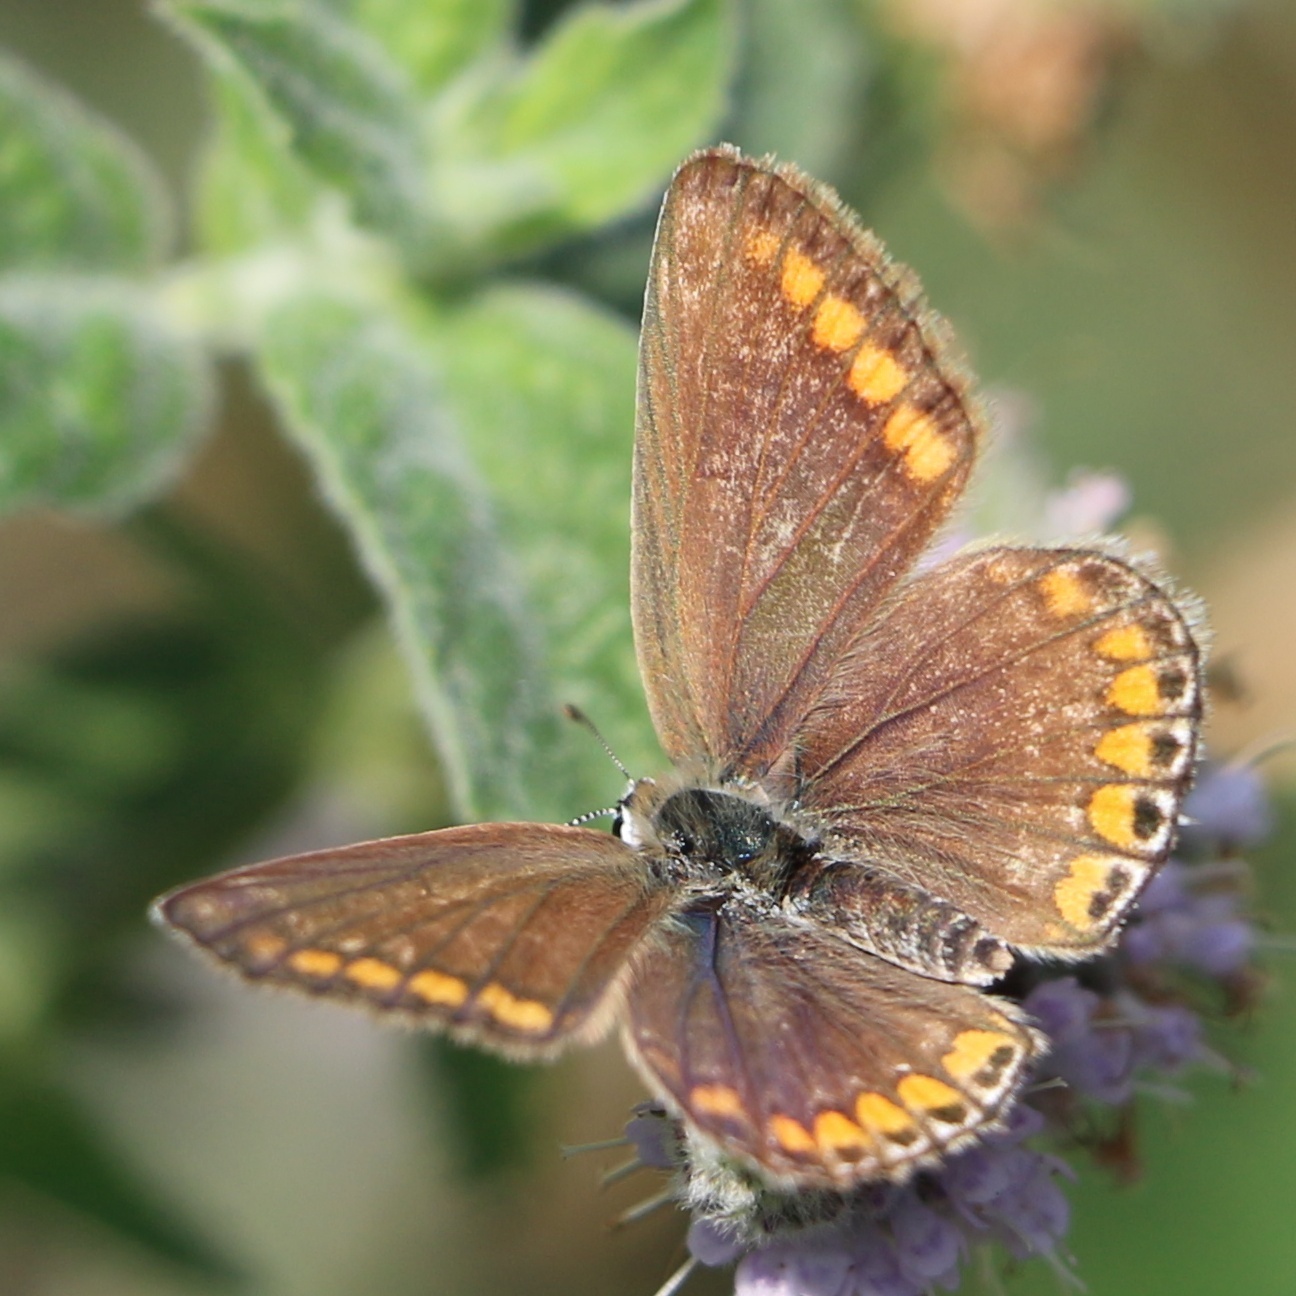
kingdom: Animalia
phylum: Arthropoda
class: Insecta
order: Lepidoptera
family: Lycaenidae
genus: Polyommatus
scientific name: Polyommatus icarus
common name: Common blue
